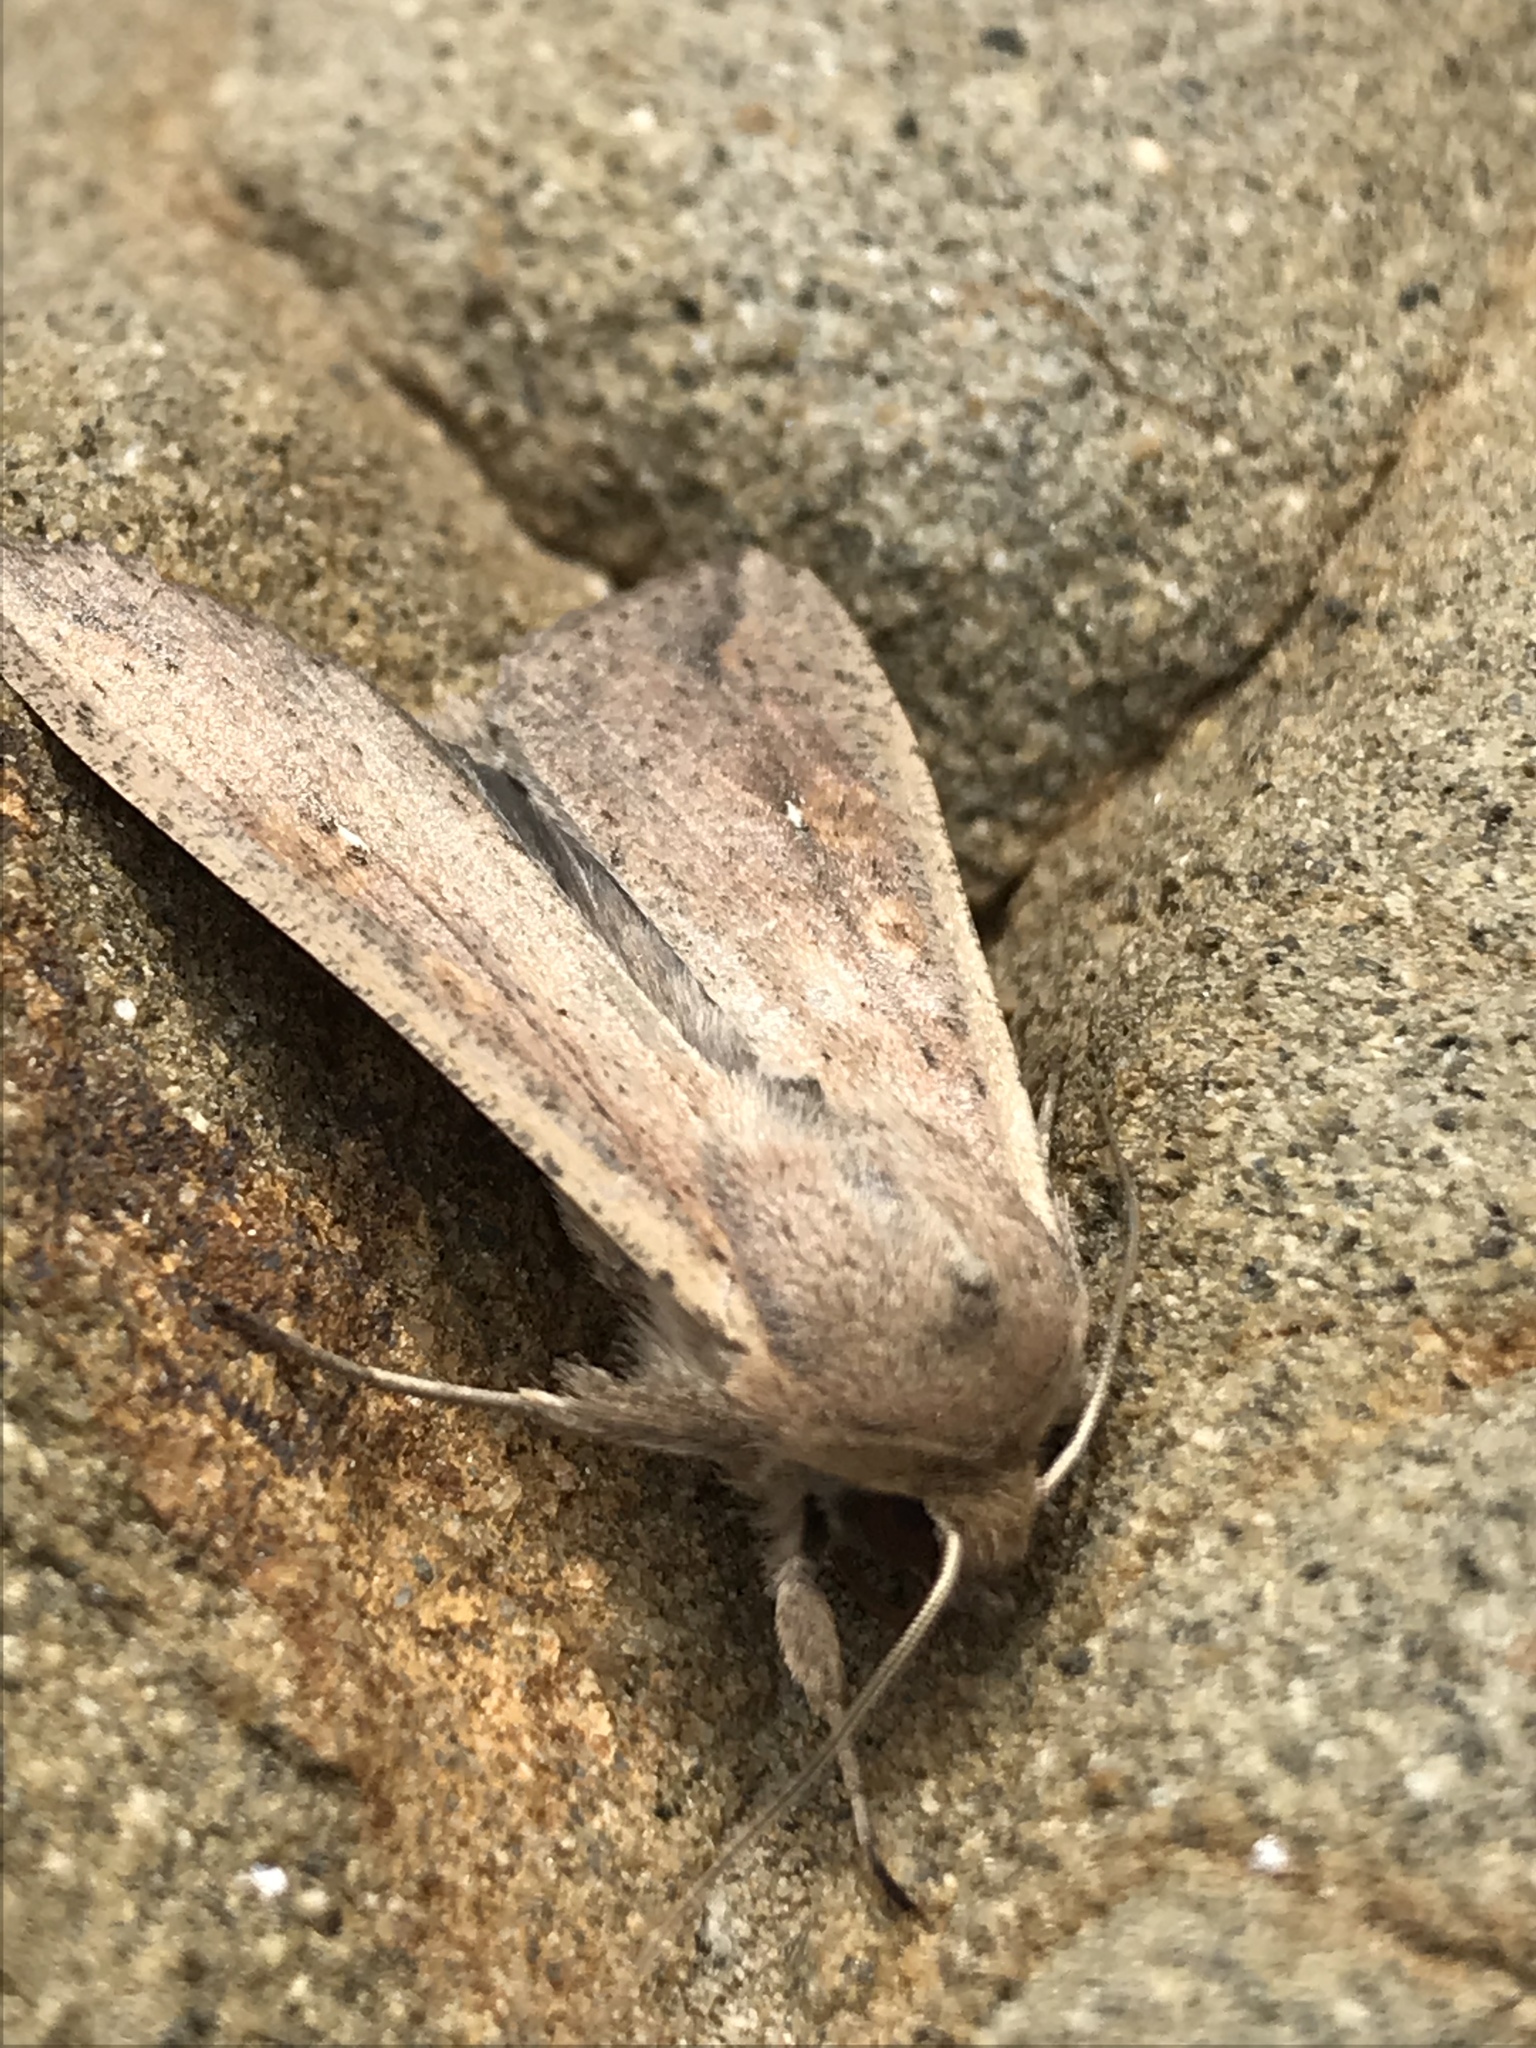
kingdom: Animalia
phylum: Arthropoda
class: Insecta
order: Lepidoptera
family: Noctuidae
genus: Mythimna
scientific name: Mythimna unipuncta
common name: White-speck
